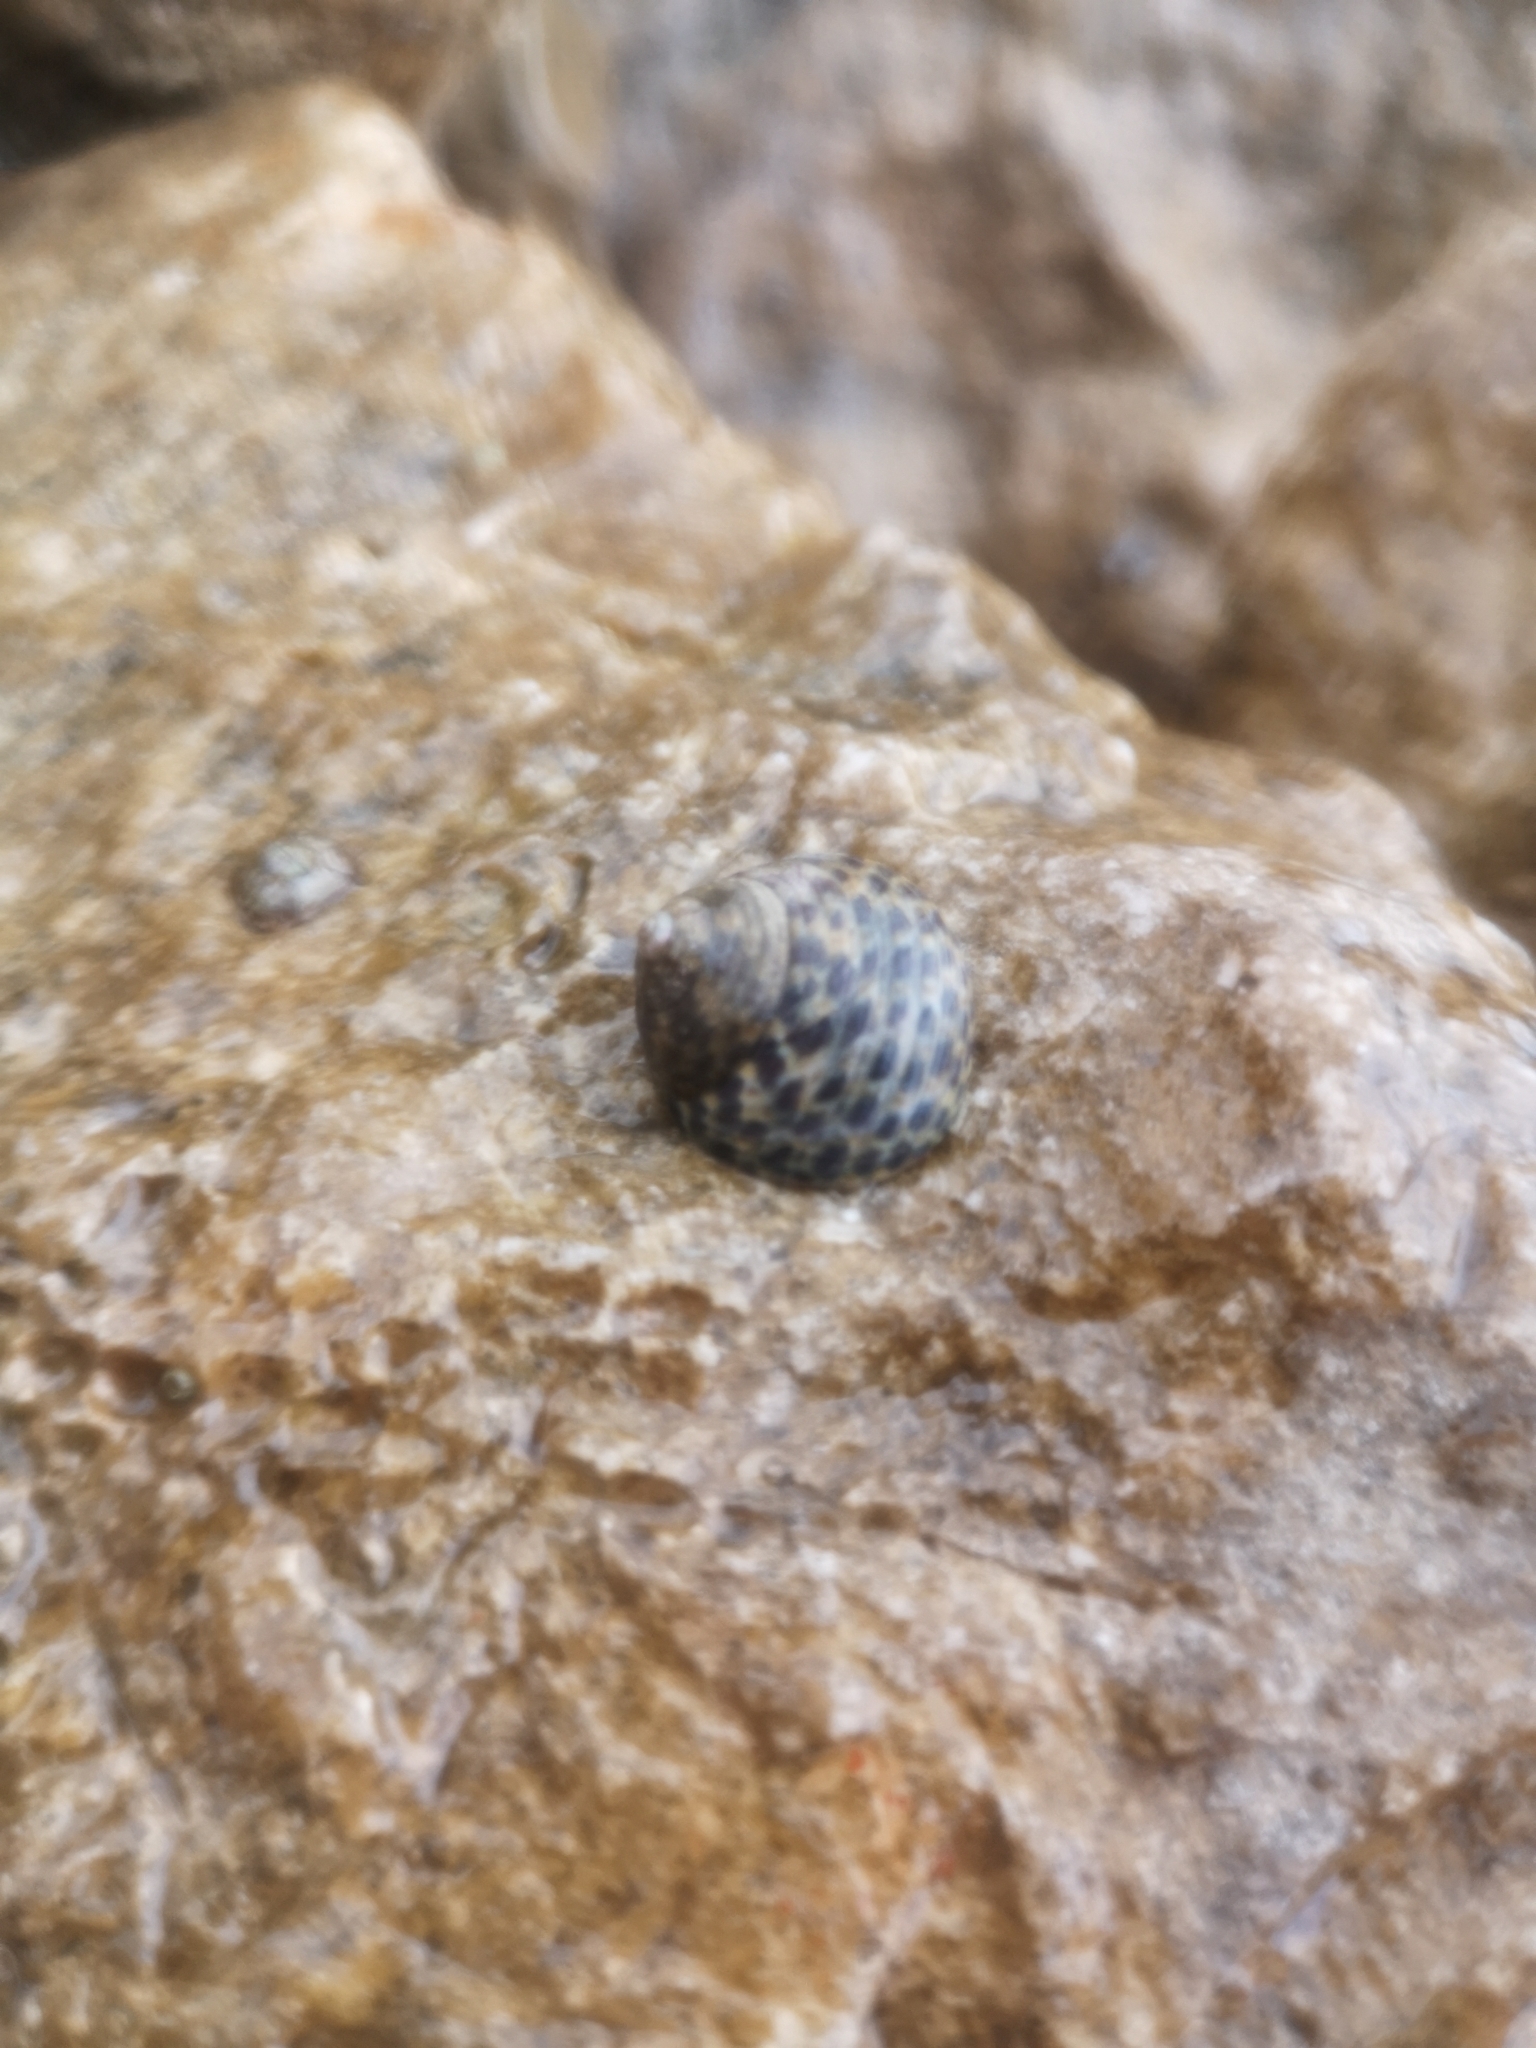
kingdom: Animalia
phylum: Mollusca
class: Gastropoda
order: Trochida
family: Trochidae
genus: Phorcus
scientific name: Phorcus turbinatus
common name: Turbinate monodont
